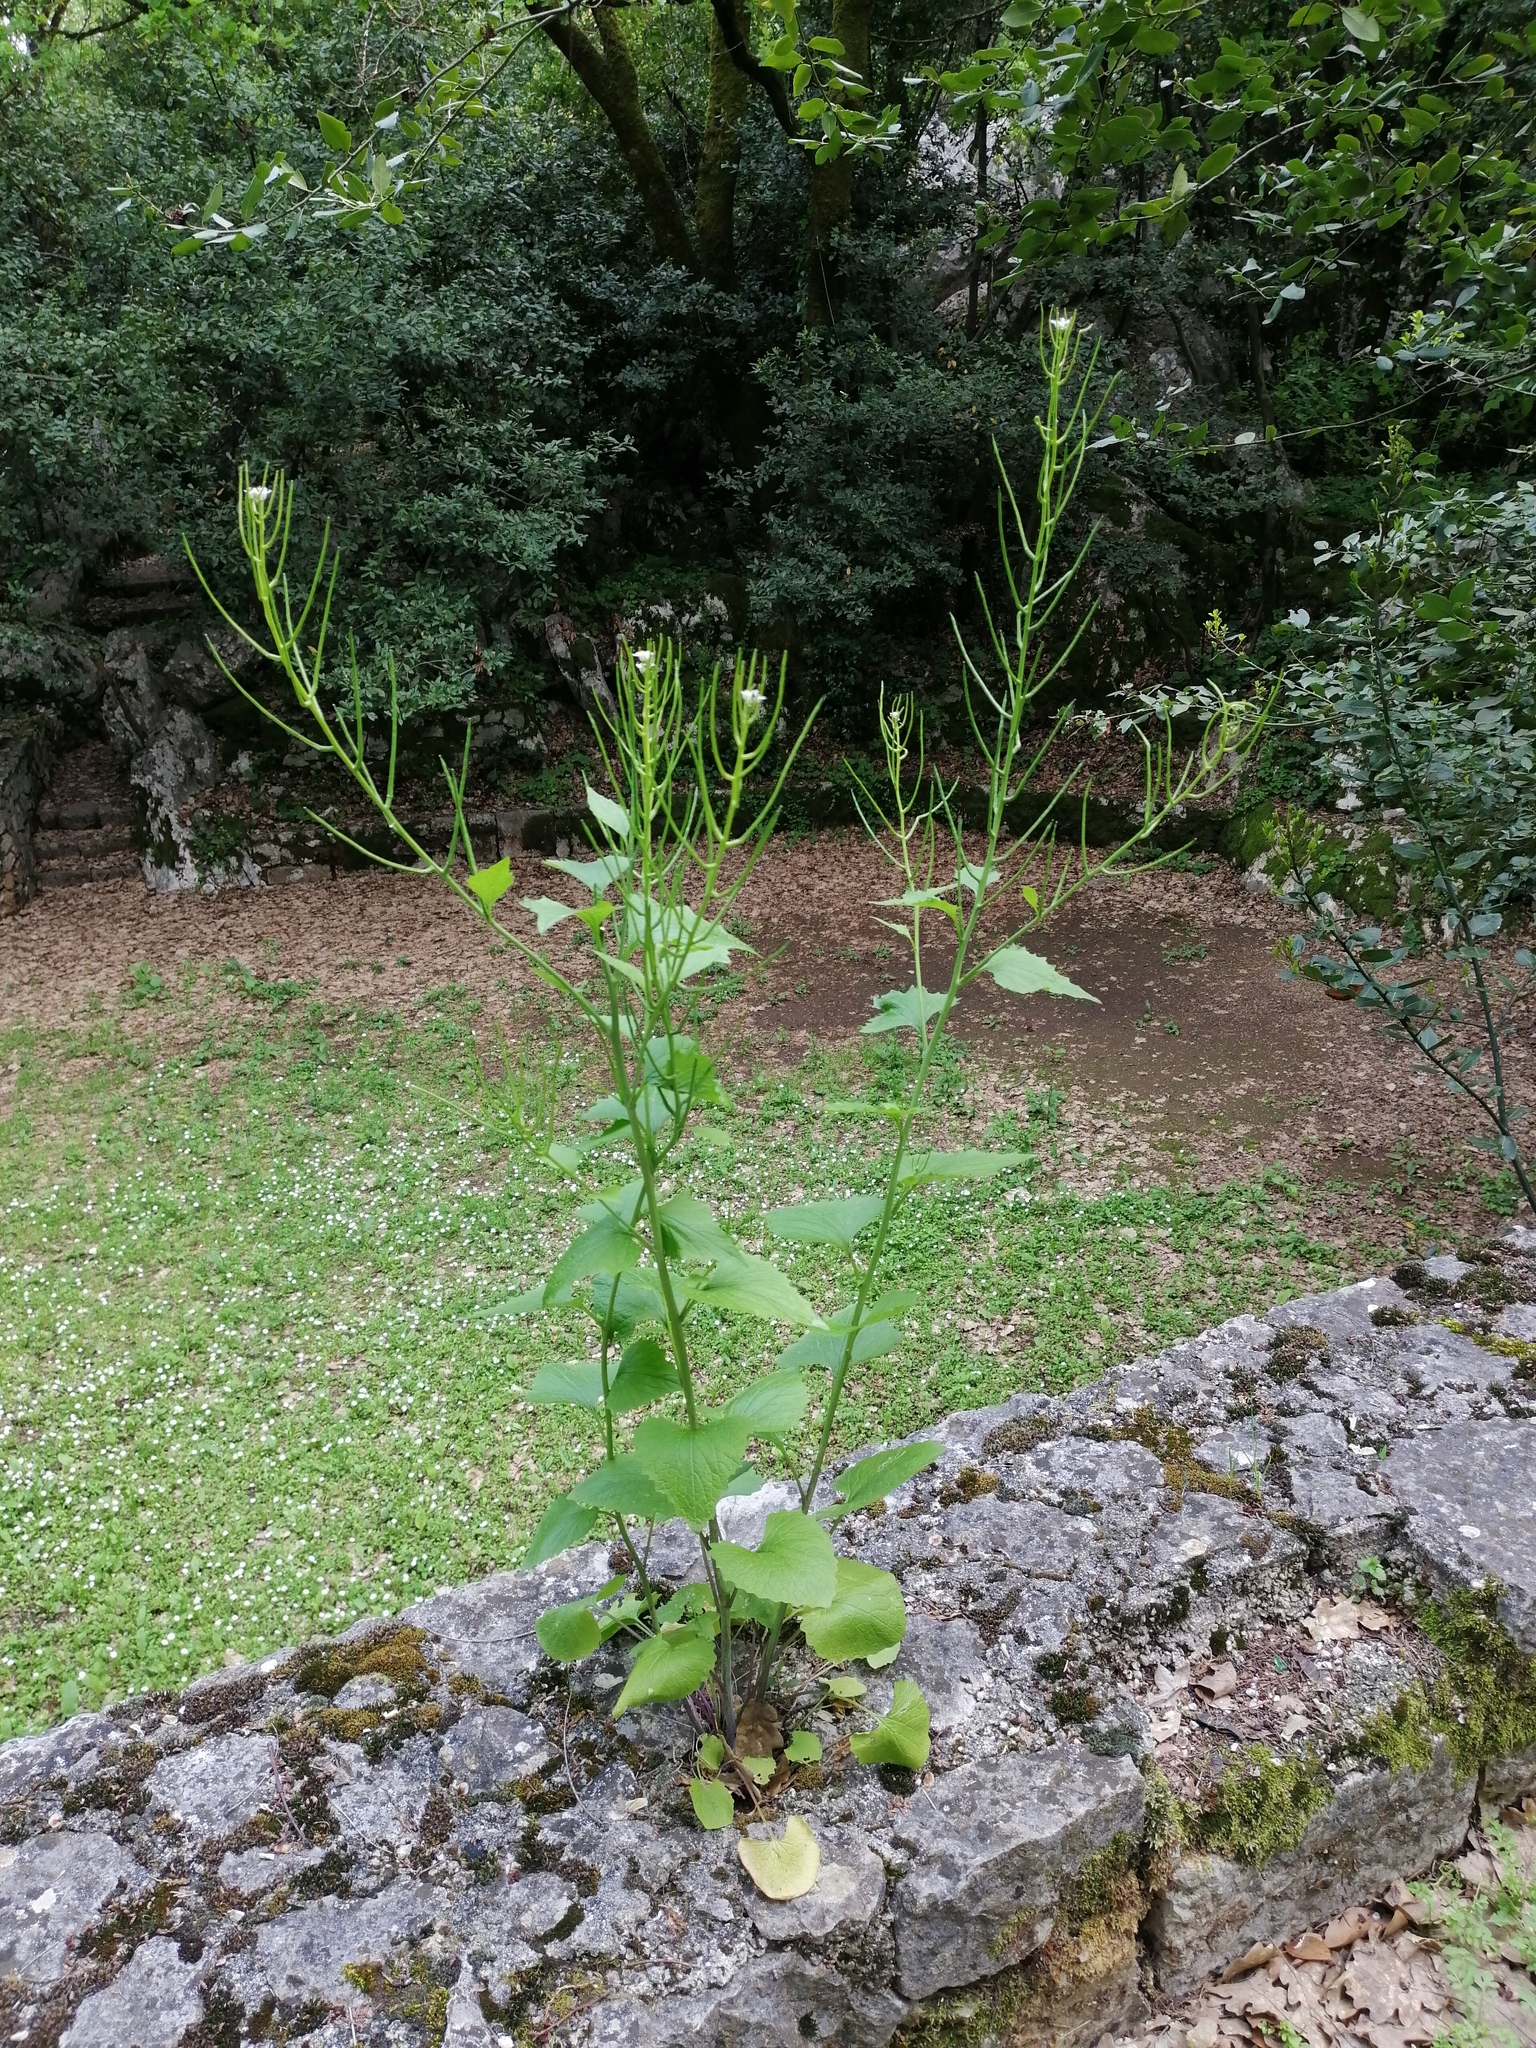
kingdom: Plantae
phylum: Tracheophyta
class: Magnoliopsida
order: Brassicales
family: Brassicaceae
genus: Alliaria
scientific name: Alliaria petiolata
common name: Garlic mustard
